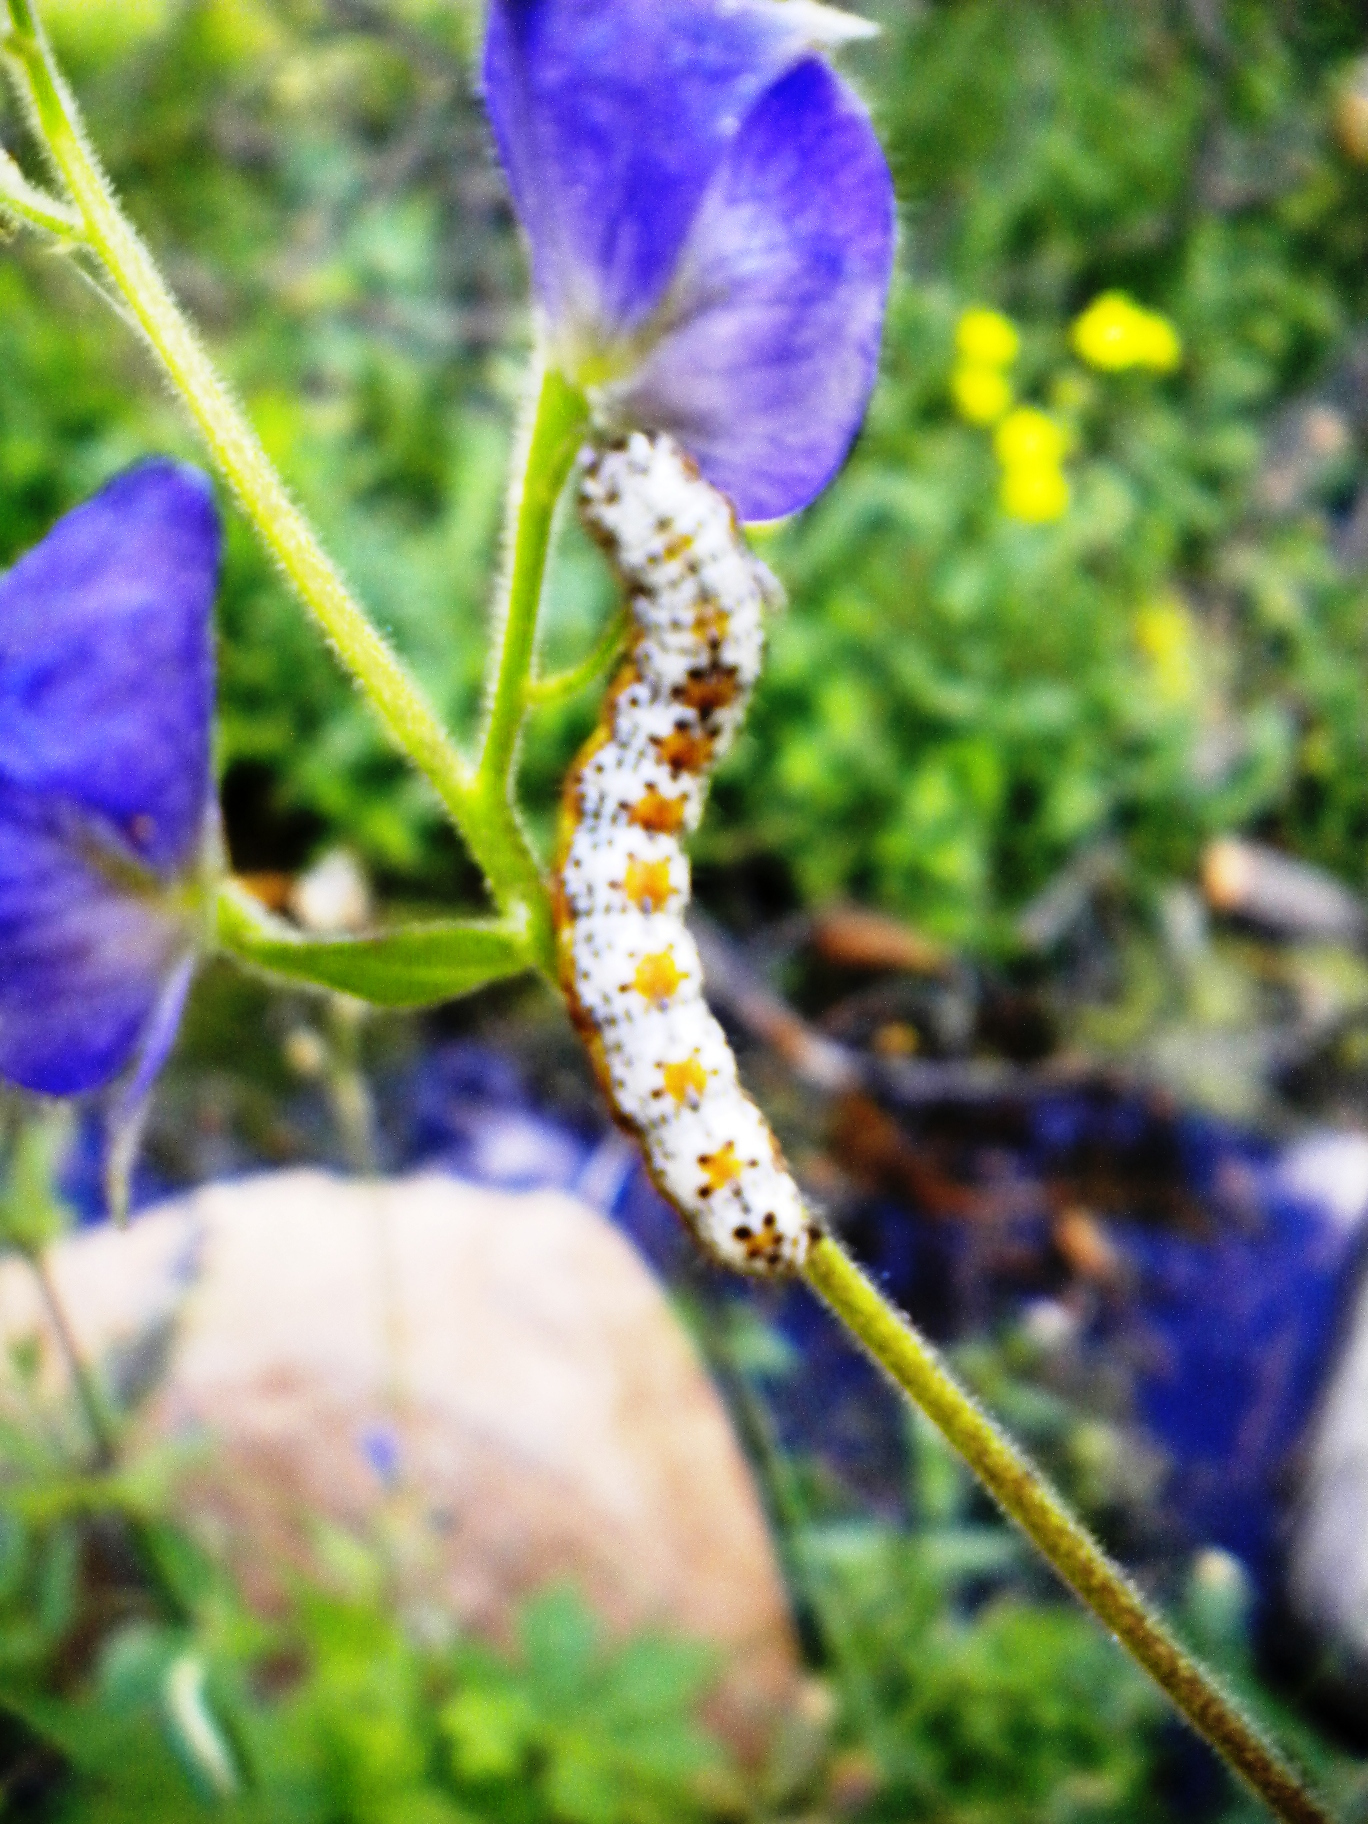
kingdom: Animalia
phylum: Arthropoda
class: Insecta
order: Lepidoptera
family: Noctuidae
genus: Pyrrhia
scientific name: Pyrrhia exprimens
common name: Purple-lined sallow
